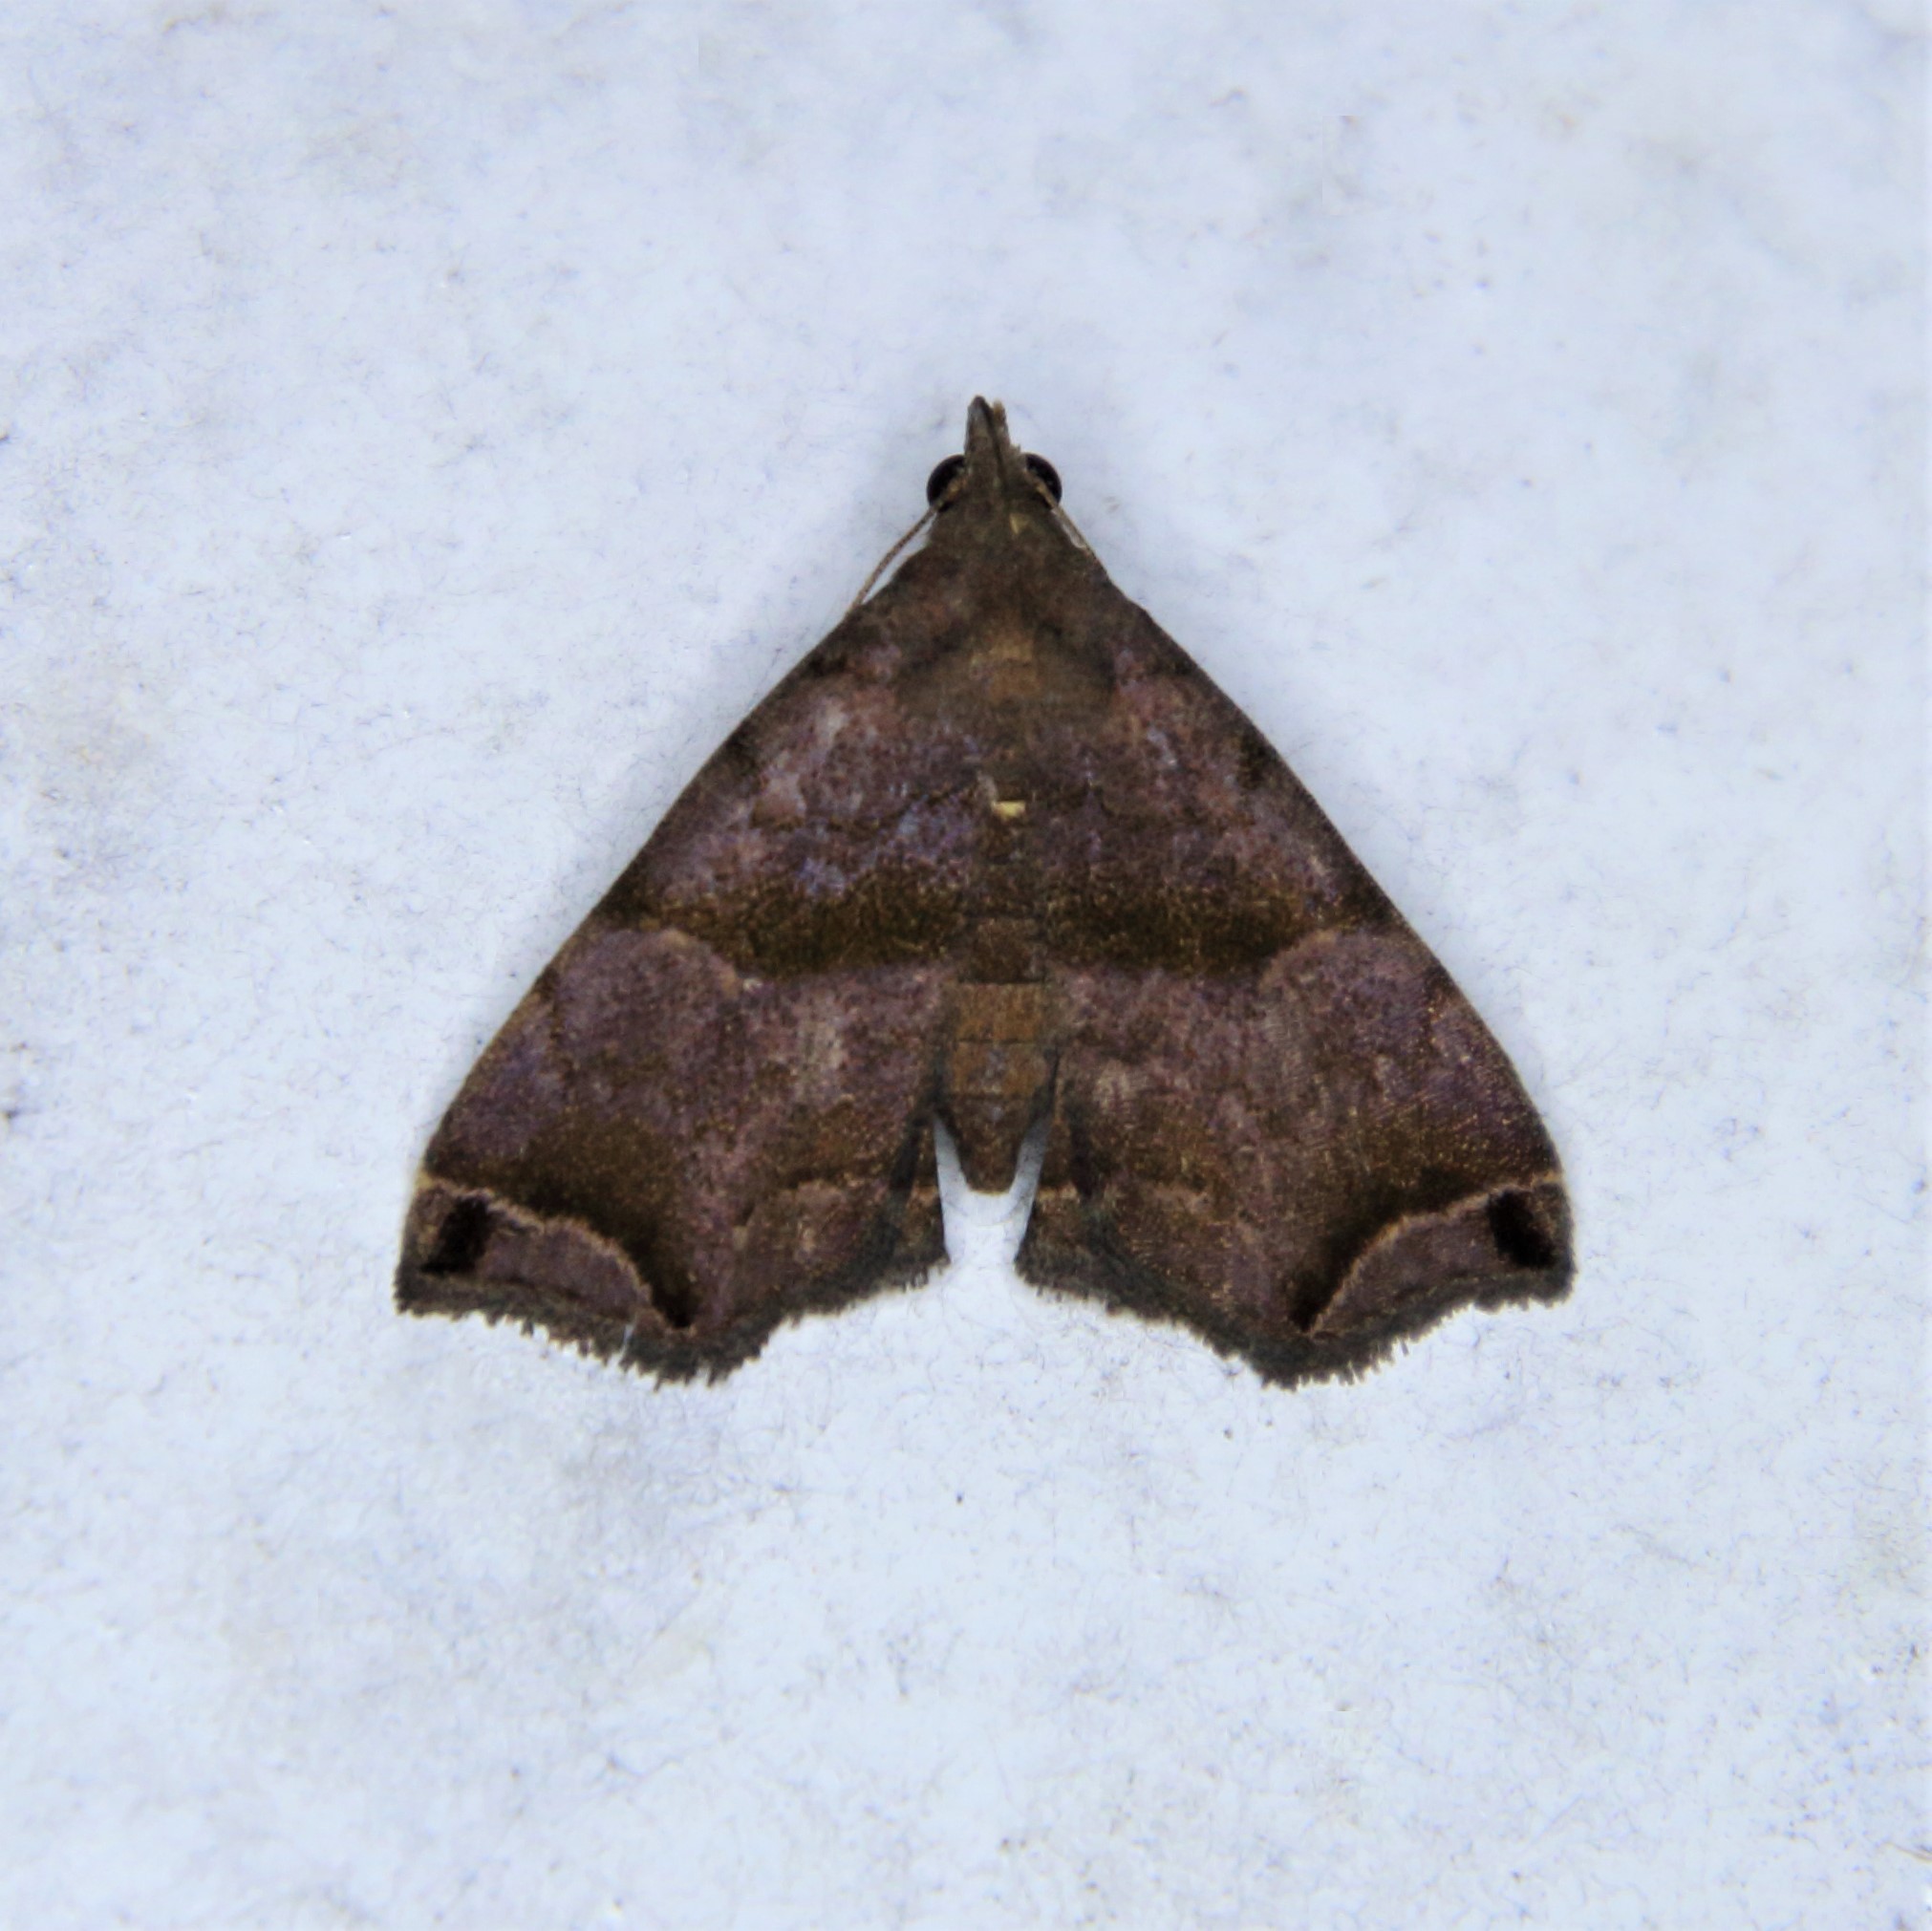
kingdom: Animalia
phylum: Arthropoda
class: Insecta
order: Lepidoptera
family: Erebidae
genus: Polypogon
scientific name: Polypogon biasalis
